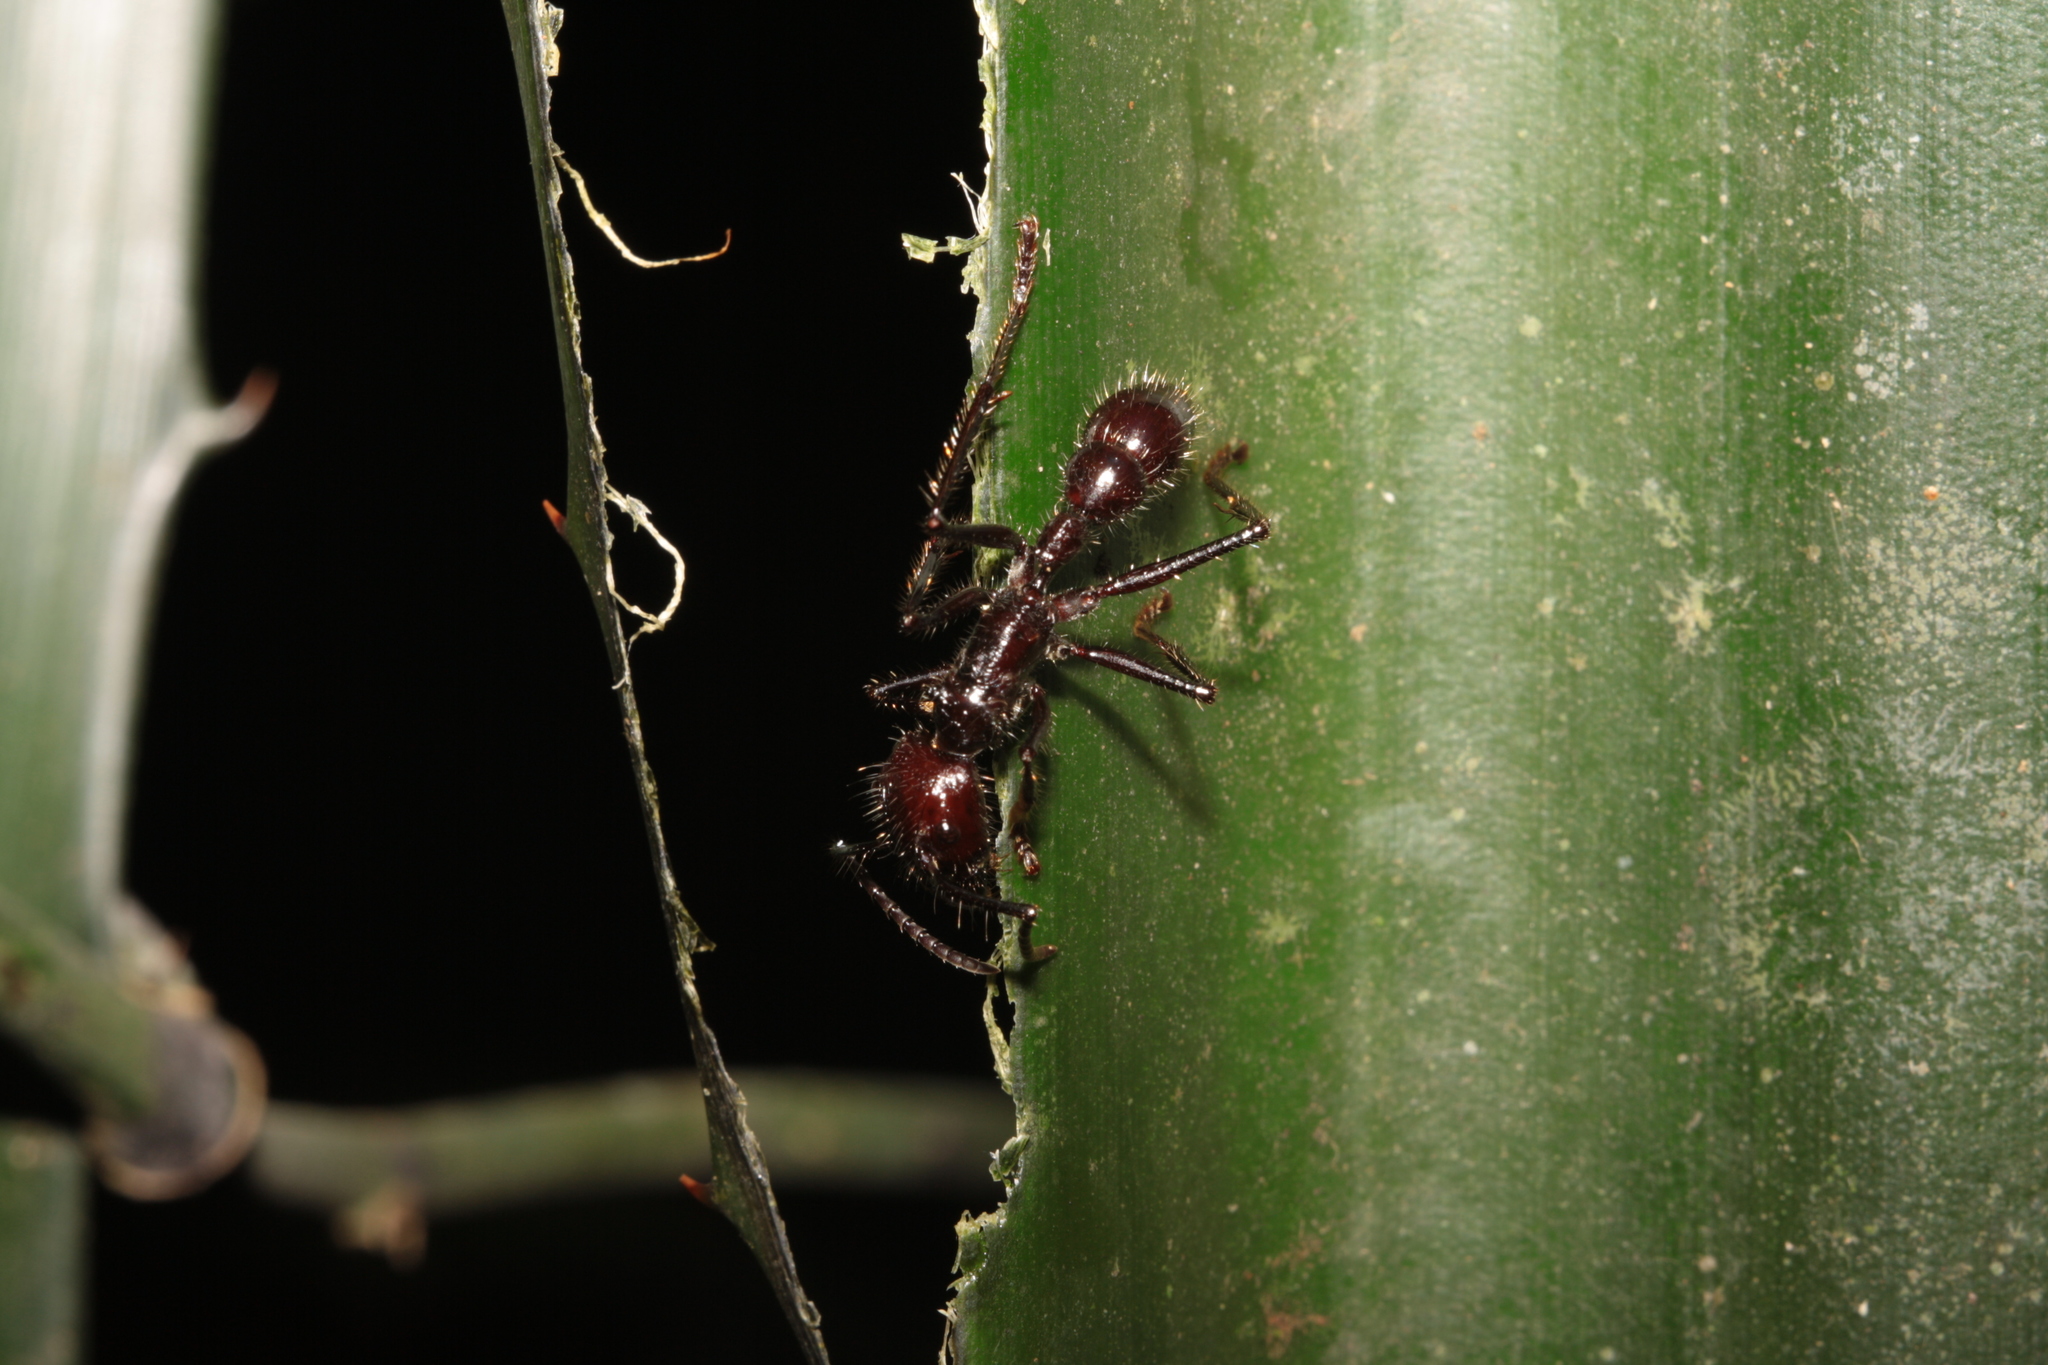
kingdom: Animalia
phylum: Arthropoda
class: Insecta
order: Hymenoptera
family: Formicidae
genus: Paraponera
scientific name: Paraponera clavata
